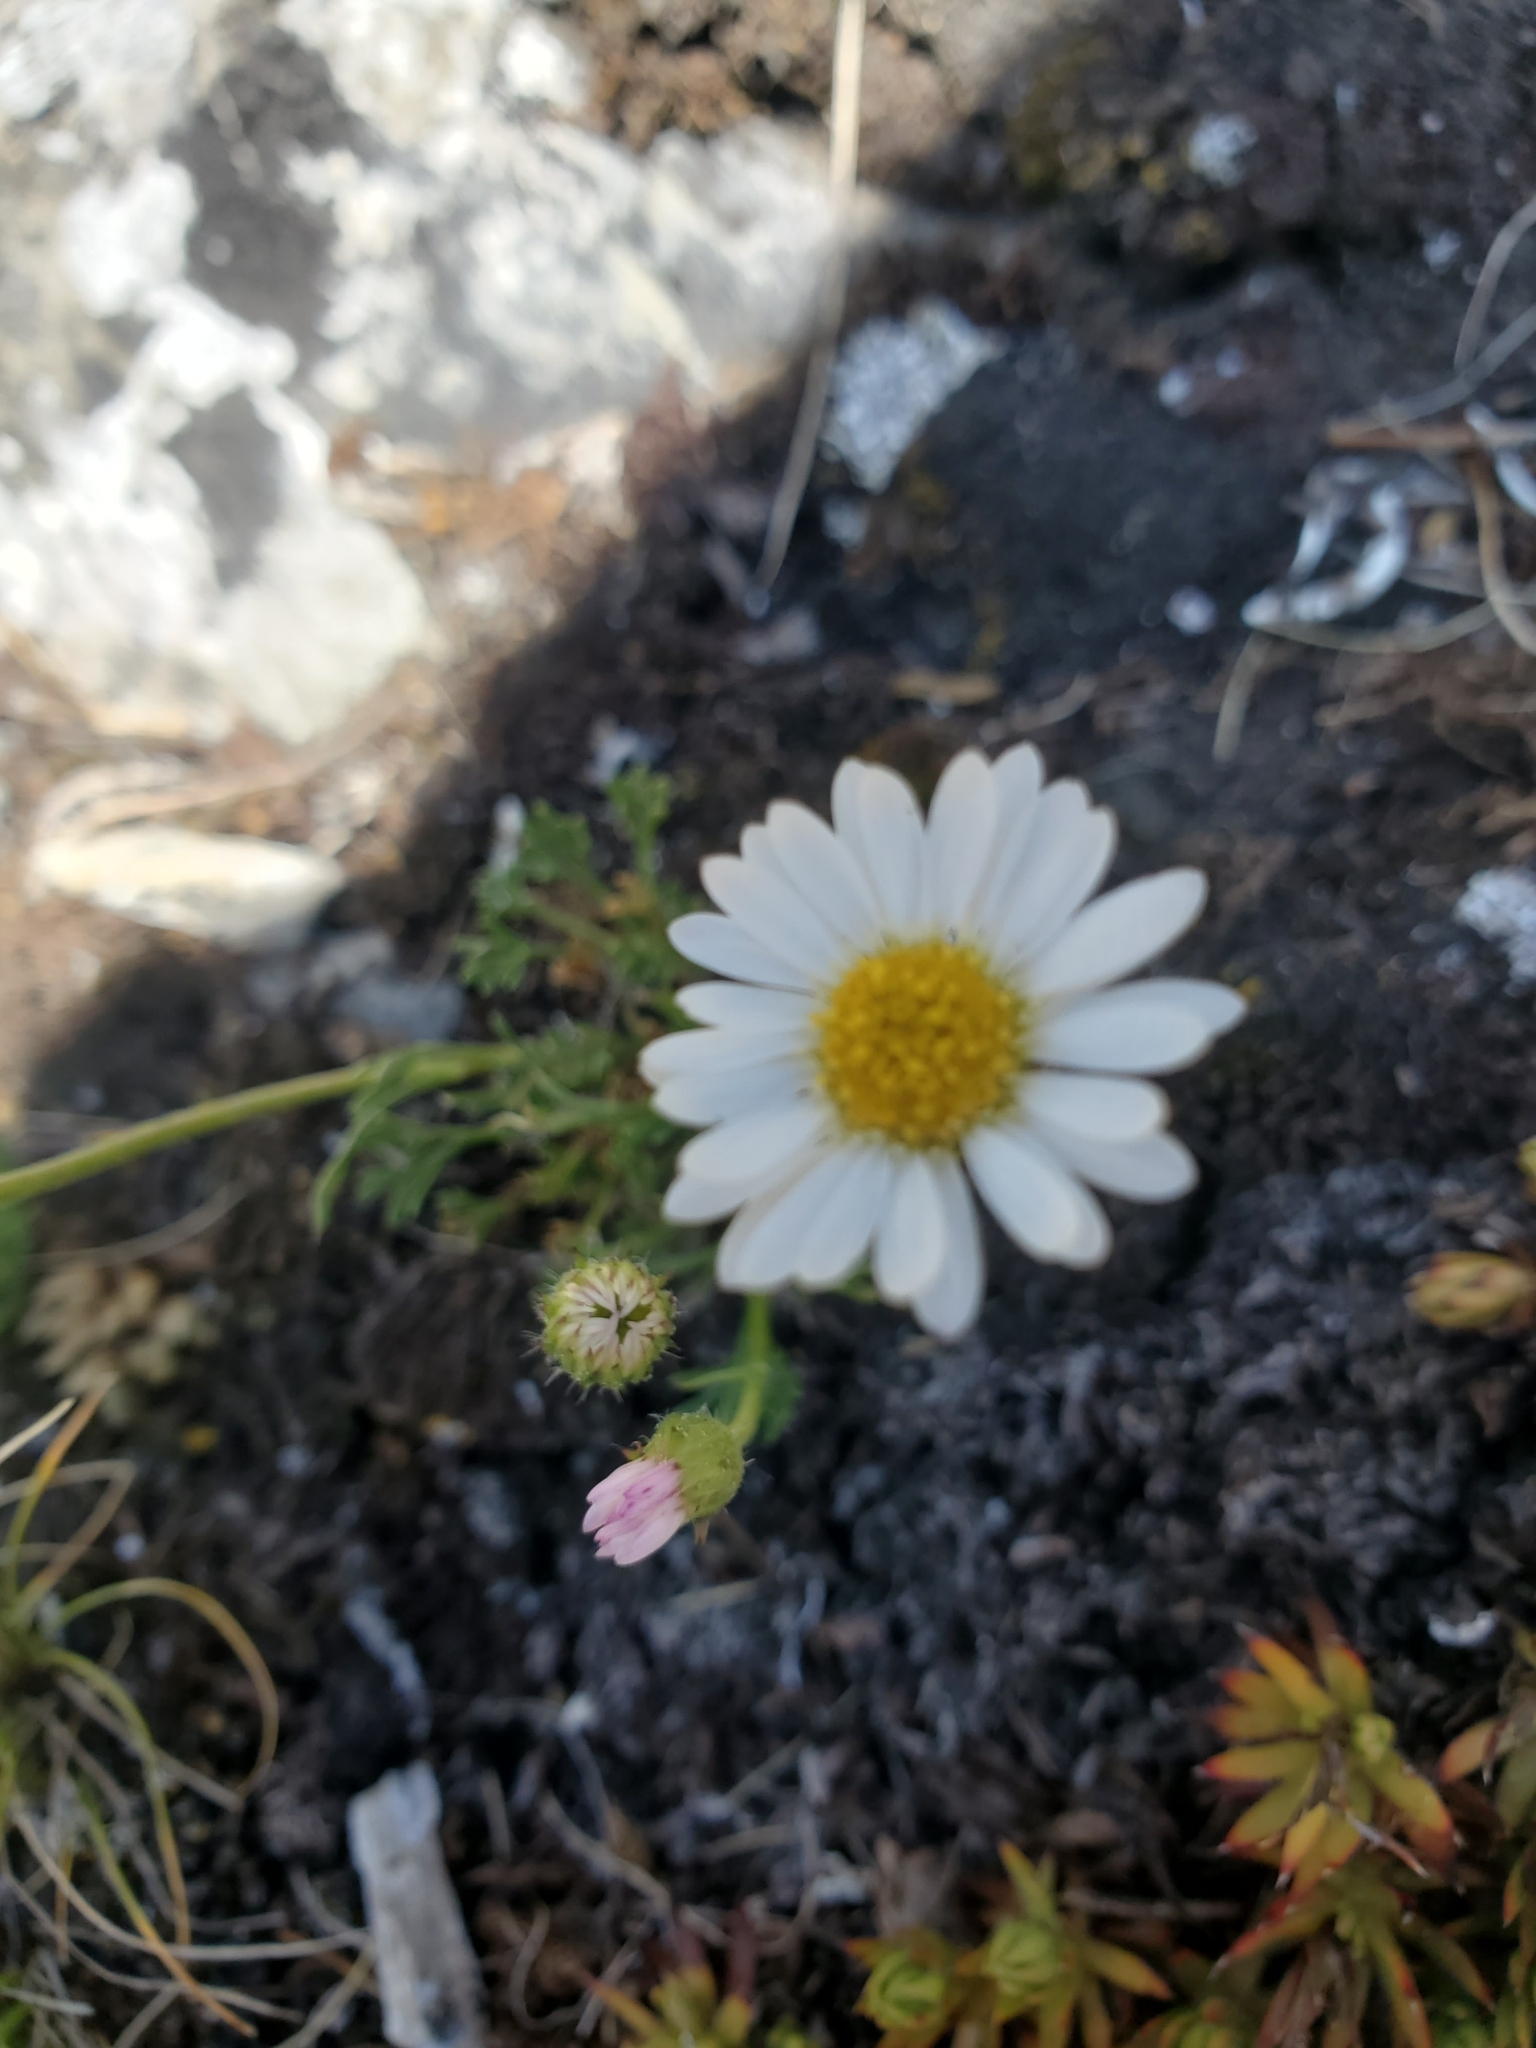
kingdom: Plantae
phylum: Tracheophyta
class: Magnoliopsida
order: Asterales
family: Asteraceae
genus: Erigeron
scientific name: Erigeron compositus
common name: Dwarf mountain fleabane
